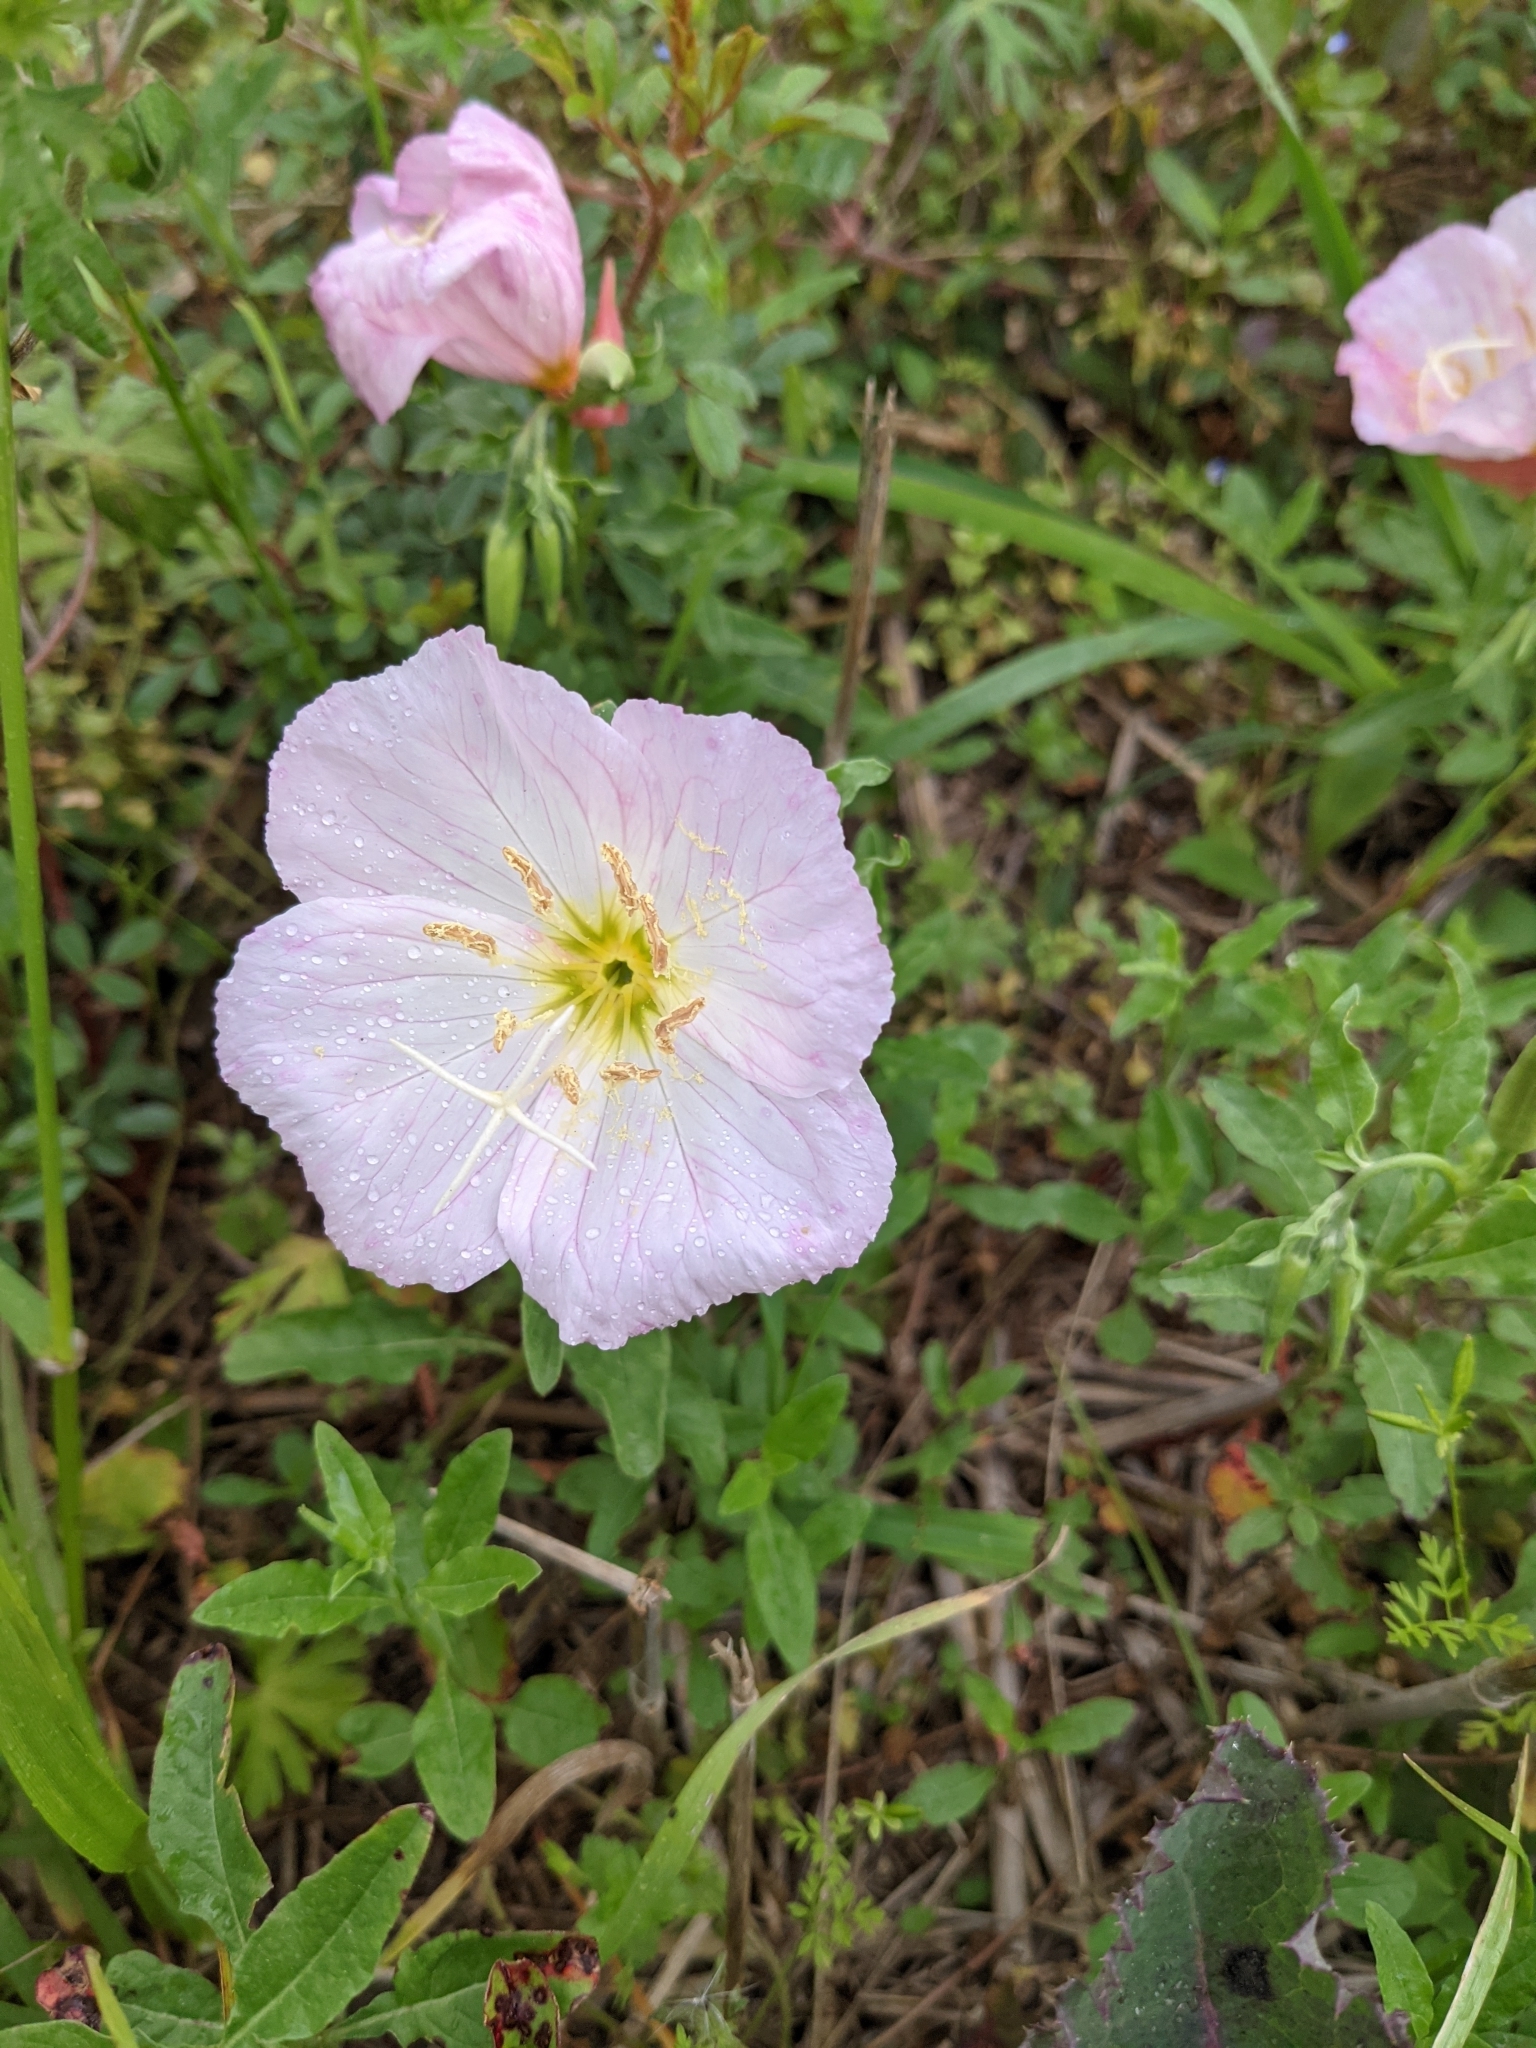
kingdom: Plantae
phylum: Tracheophyta
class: Magnoliopsida
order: Myrtales
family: Onagraceae
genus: Oenothera
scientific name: Oenothera speciosa
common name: White evening-primrose
